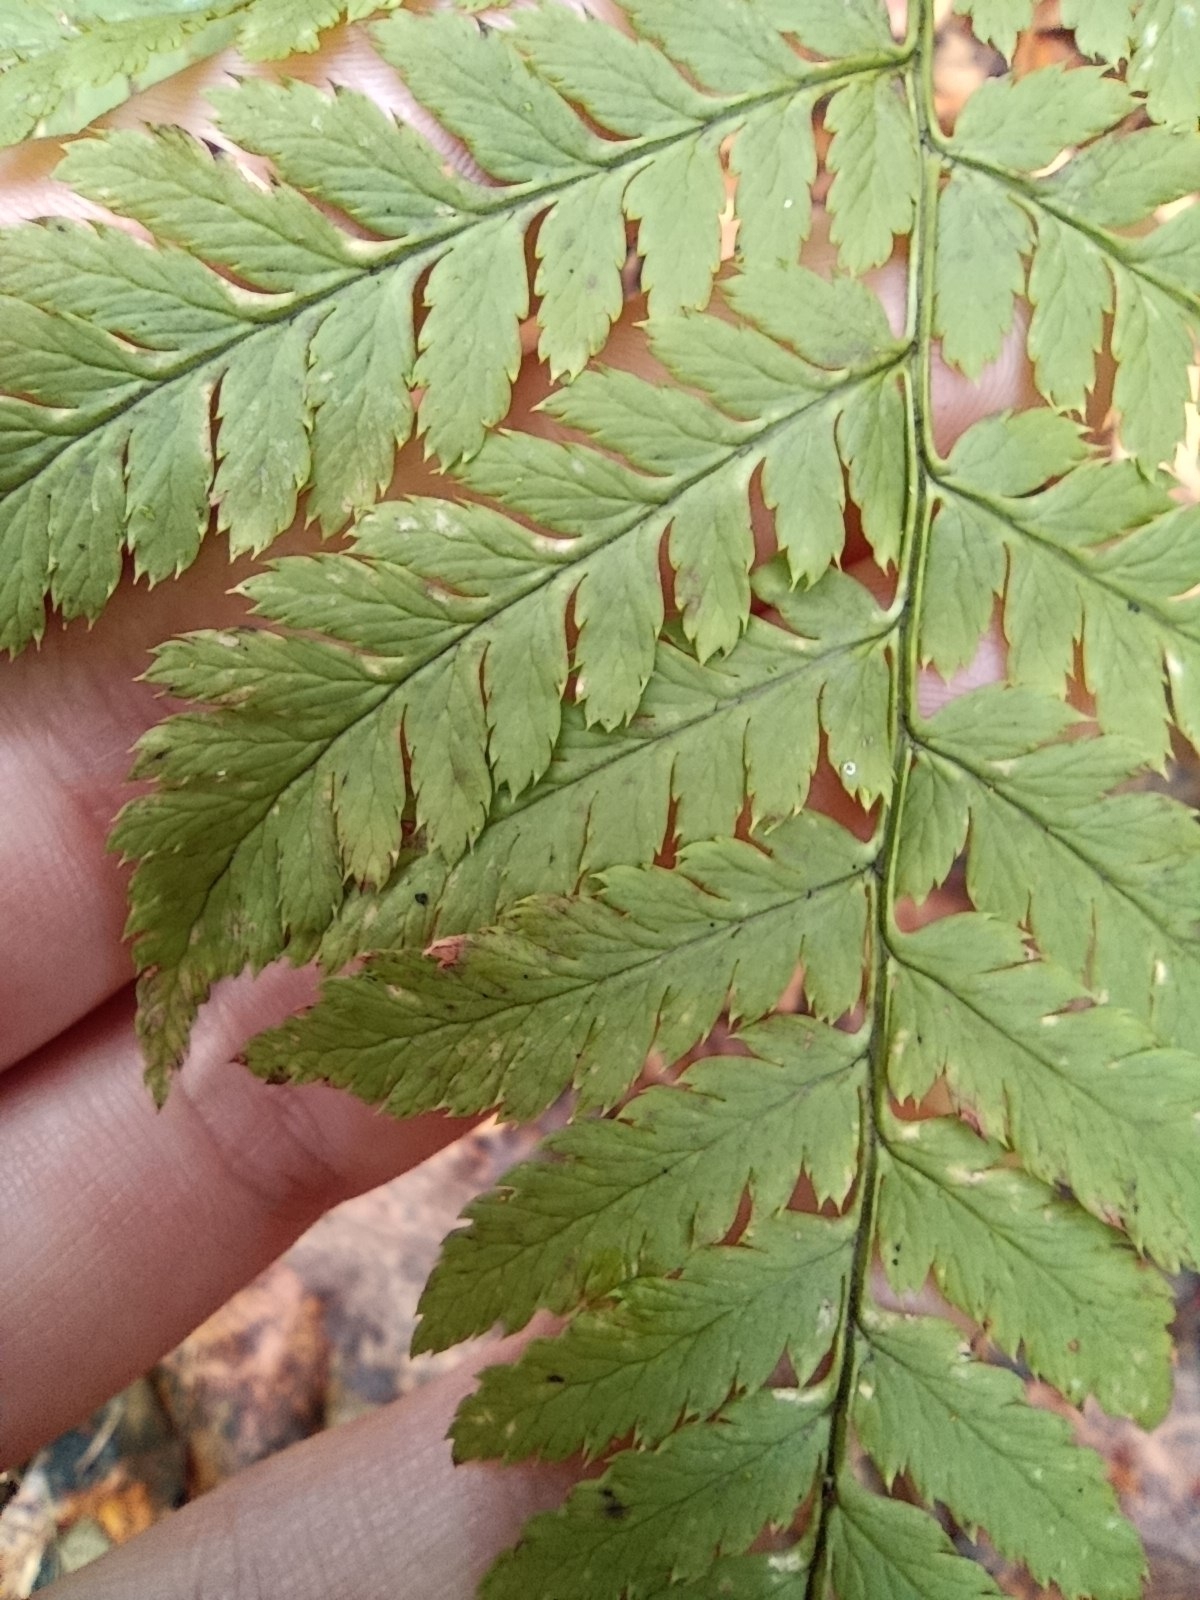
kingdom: Plantae
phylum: Tracheophyta
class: Polypodiopsida
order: Polypodiales
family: Dryopteridaceae
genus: Dryopteris
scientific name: Dryopteris carthusiana
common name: Narrow buckler-fern
